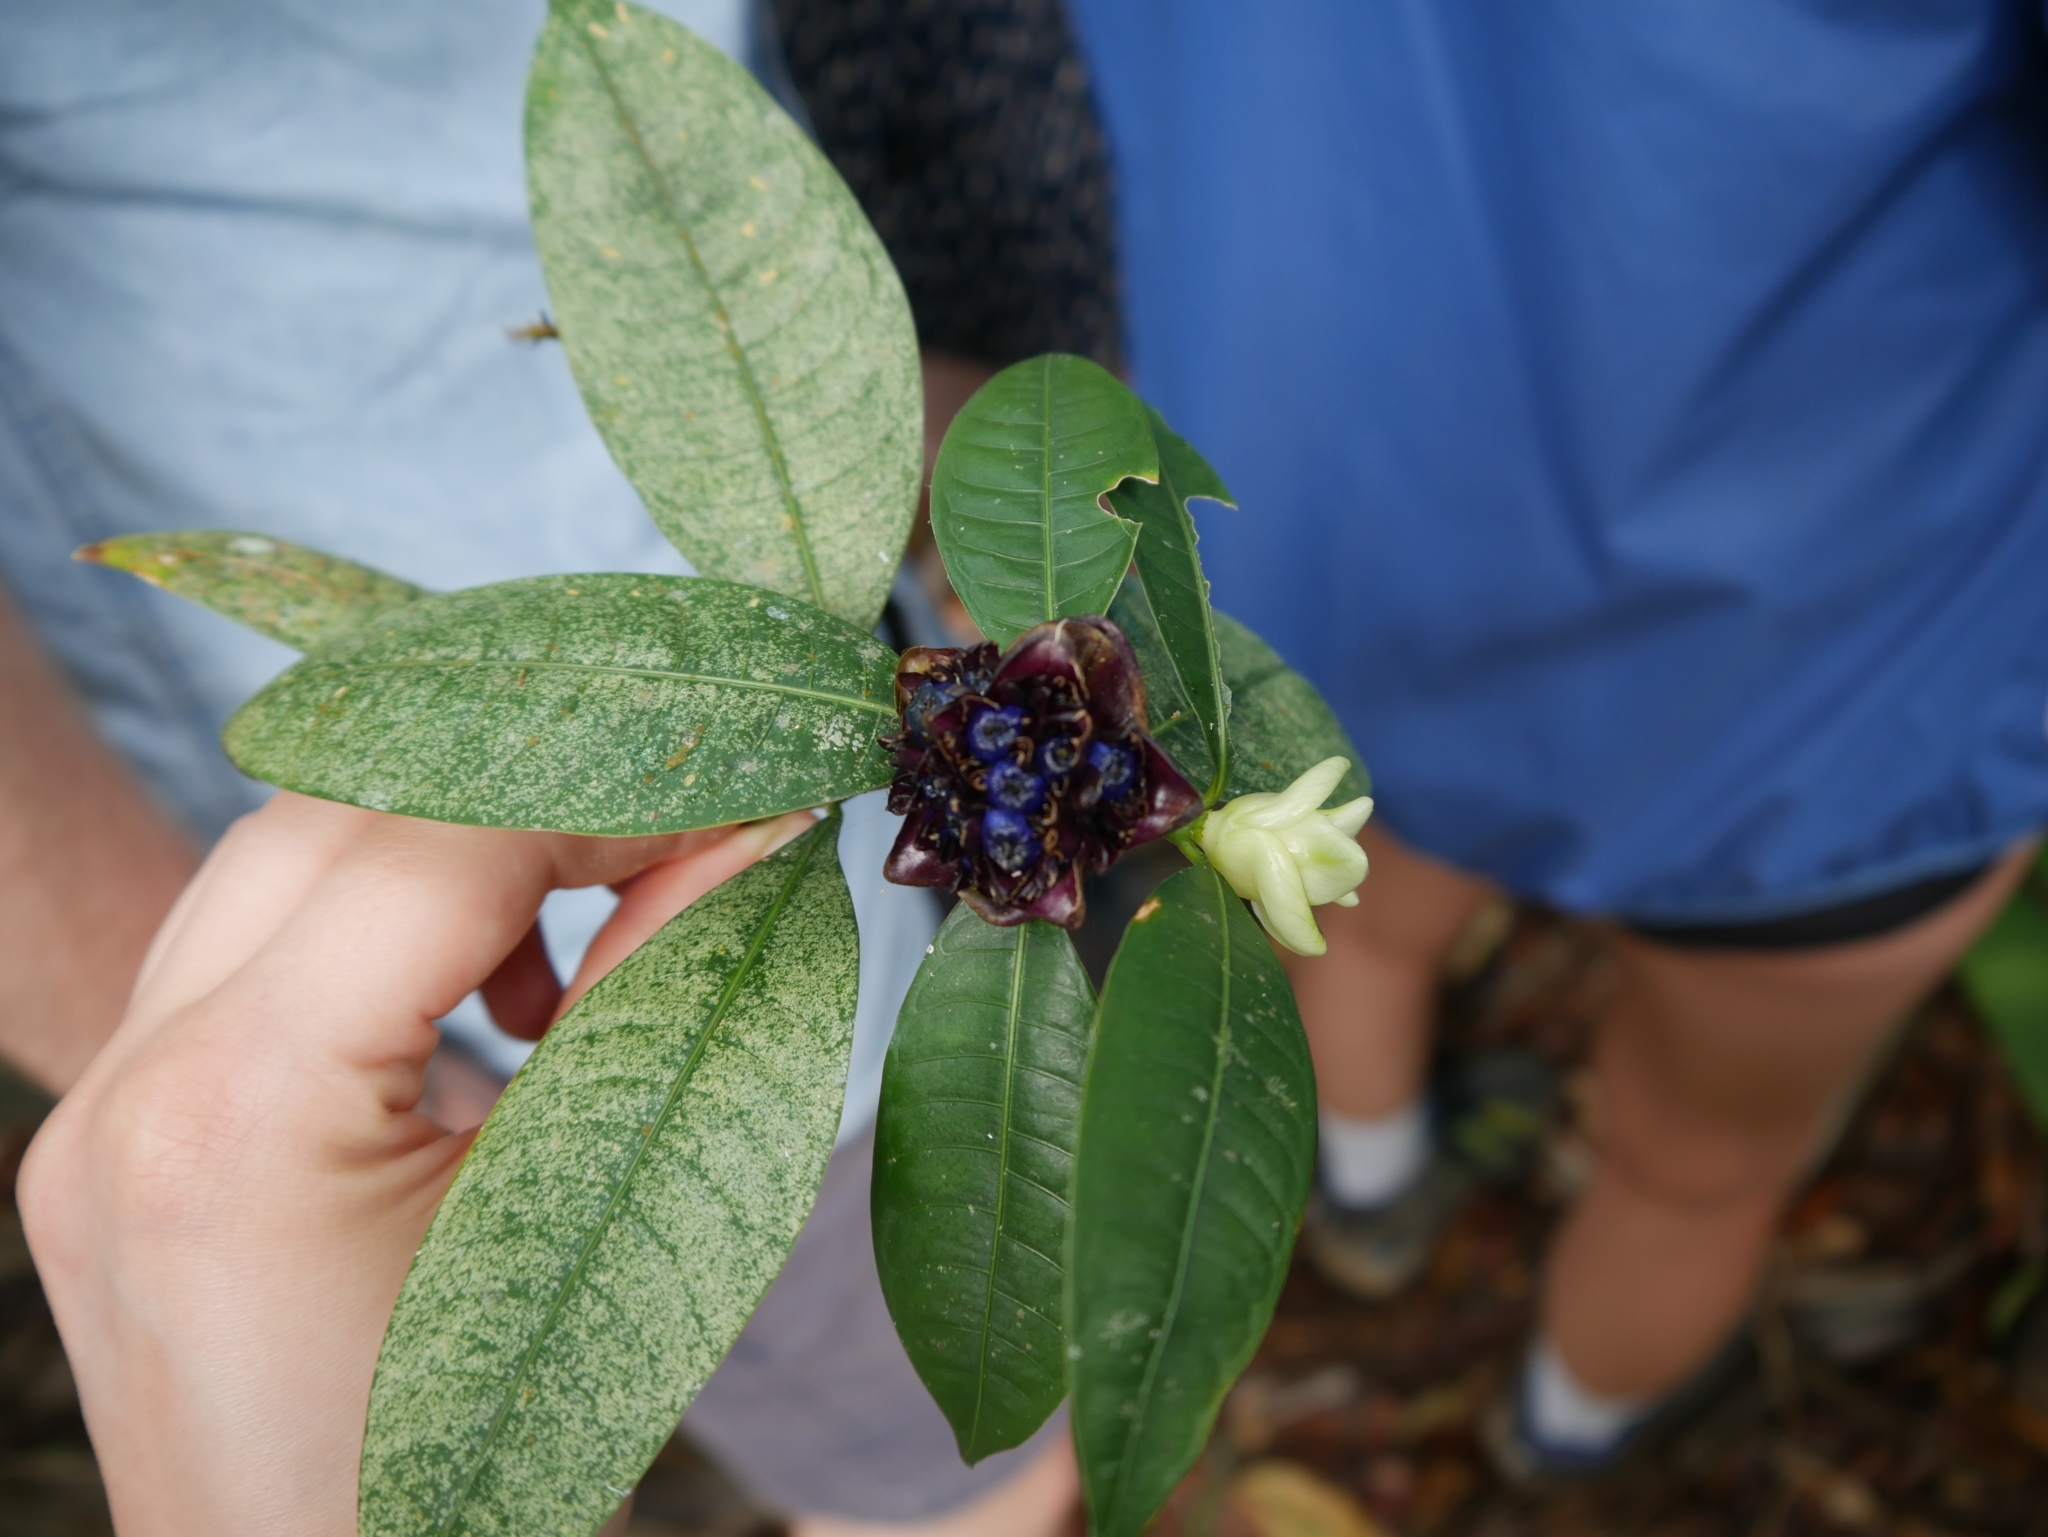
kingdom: Plantae
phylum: Tracheophyta
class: Magnoliopsida
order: Gentianales
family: Rubiaceae
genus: Palicourea
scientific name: Palicourea glomerulata
